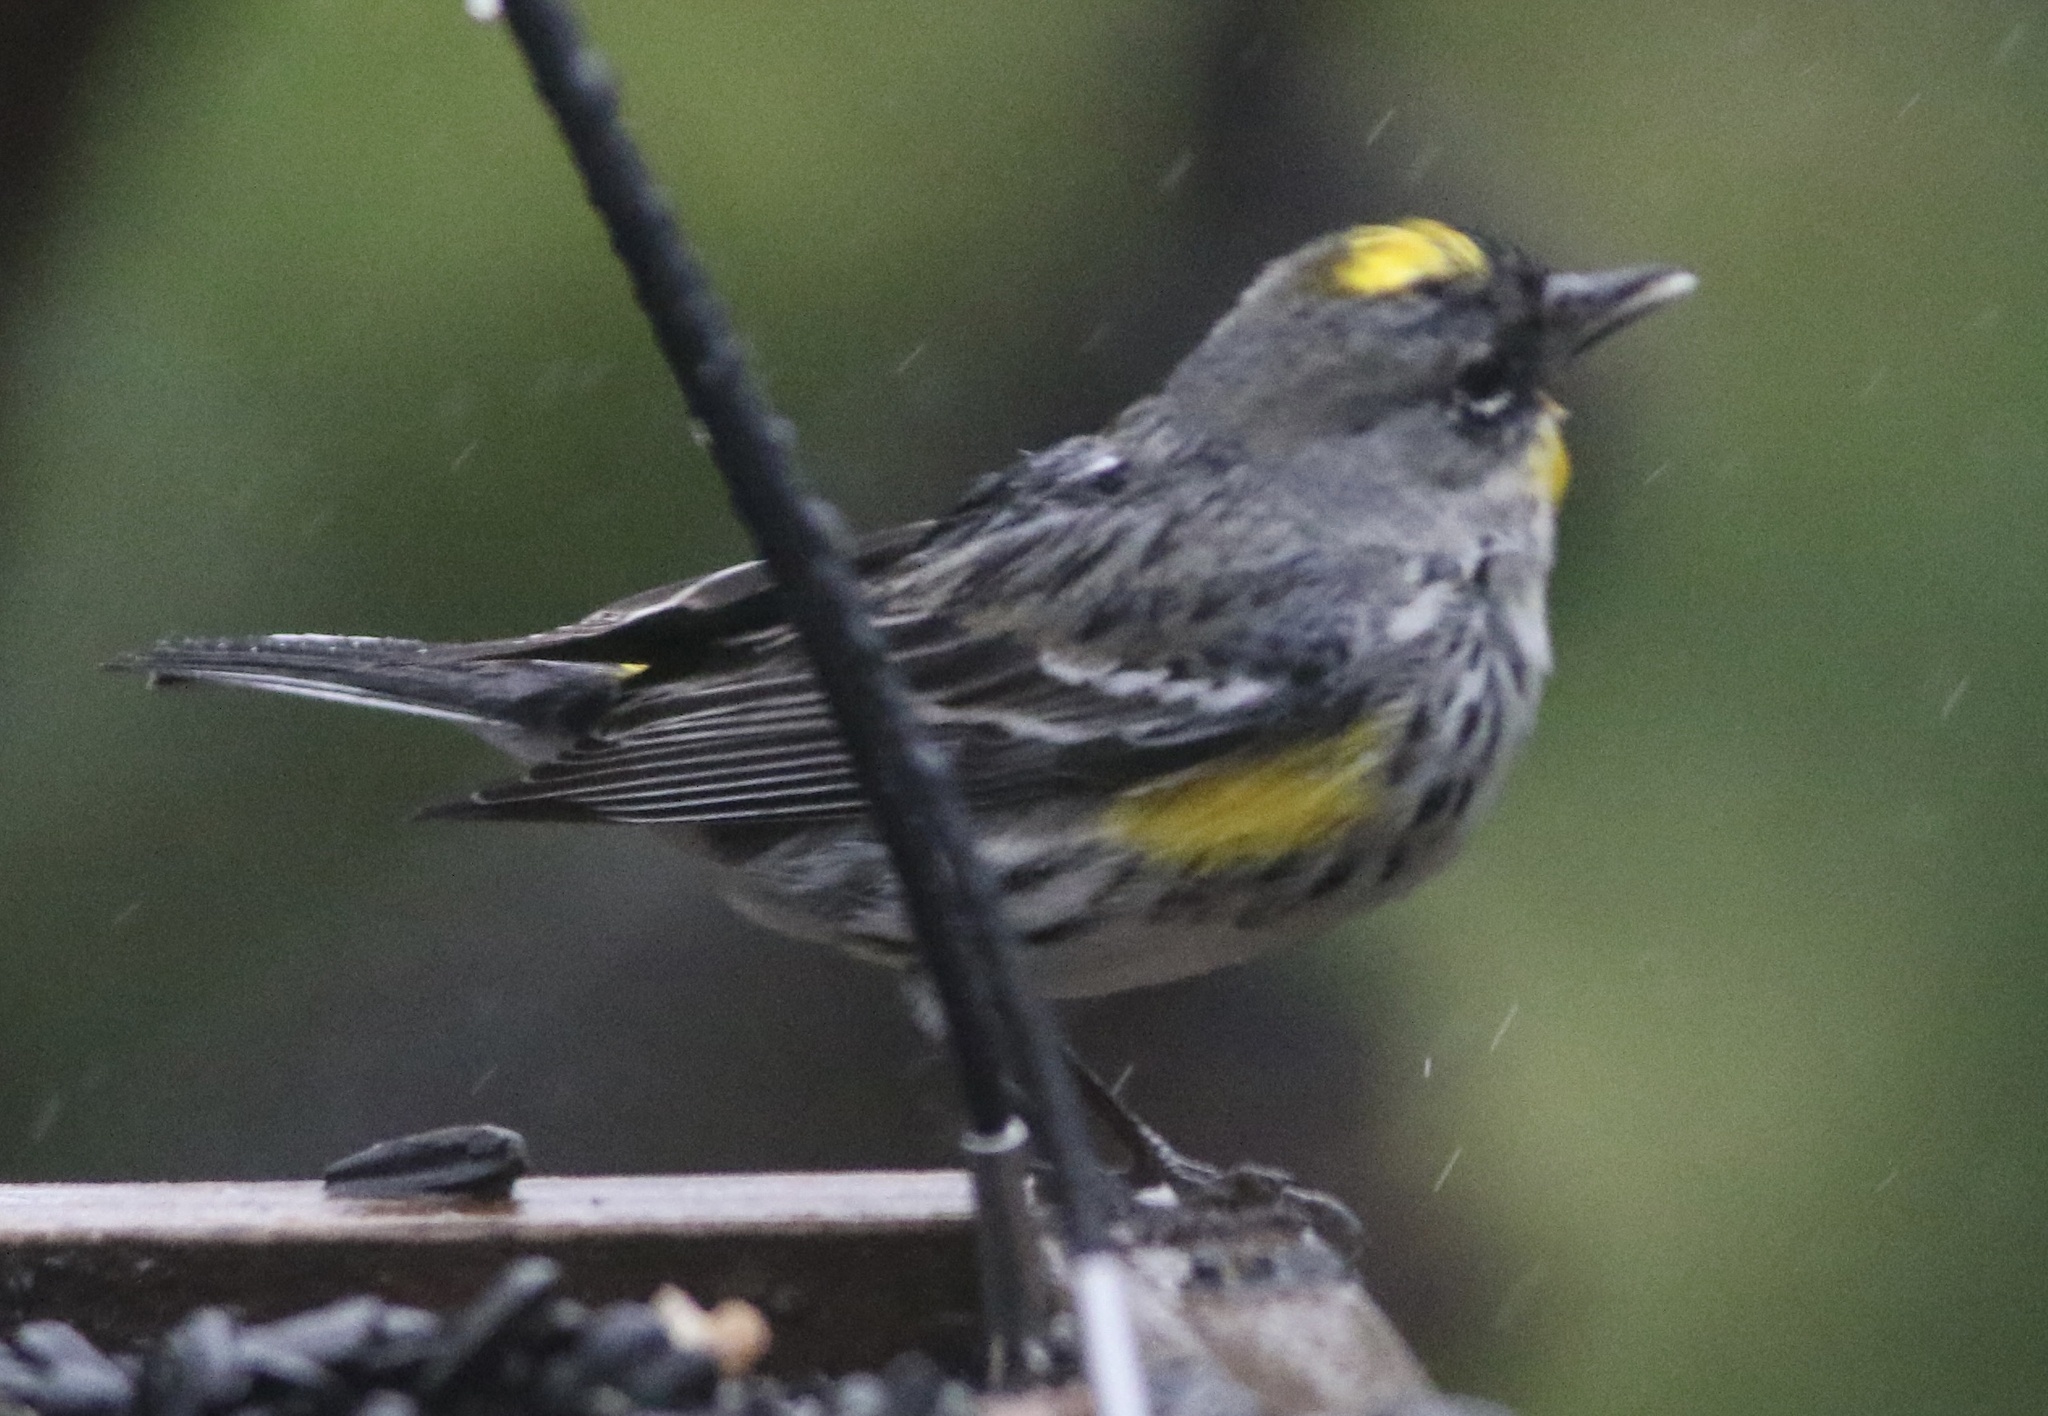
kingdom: Animalia
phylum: Chordata
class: Aves
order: Passeriformes
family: Parulidae
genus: Setophaga
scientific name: Setophaga coronata
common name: Myrtle warbler
